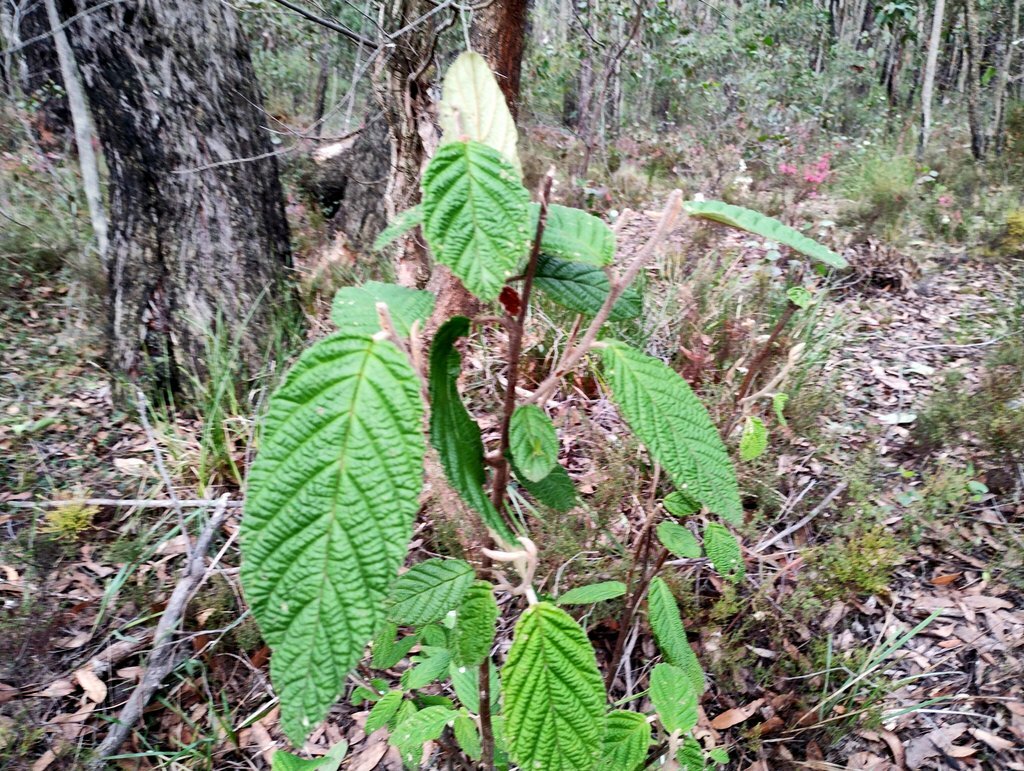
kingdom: Plantae
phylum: Tracheophyta
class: Magnoliopsida
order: Rosales
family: Rhamnaceae
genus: Pomaderris
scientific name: Pomaderris aspera
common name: Hazel pomaderris
